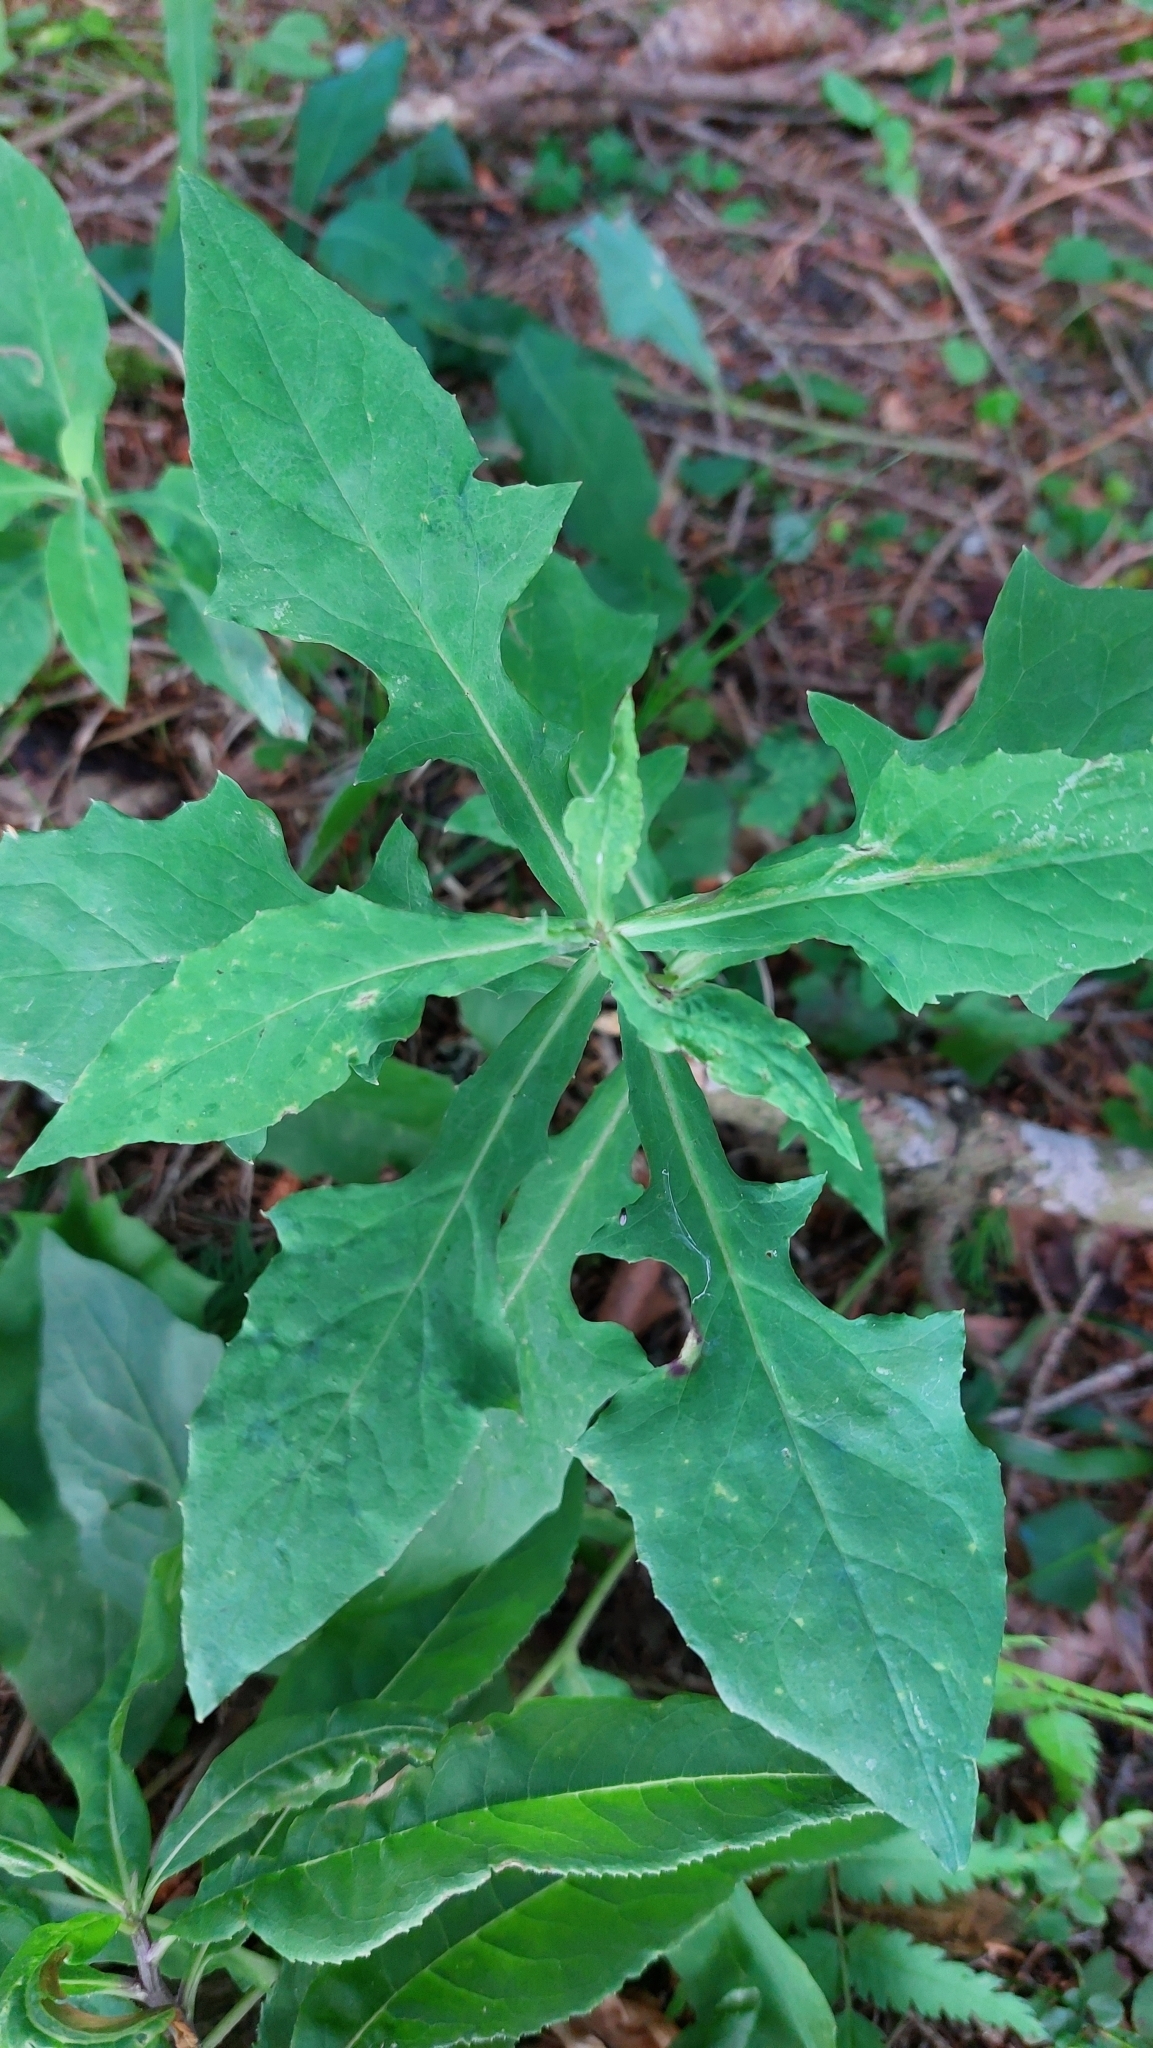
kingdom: Plantae
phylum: Tracheophyta
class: Magnoliopsida
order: Asterales
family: Asteraceae
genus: Prenanthes
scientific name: Prenanthes purpurea
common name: Purple lettuce
